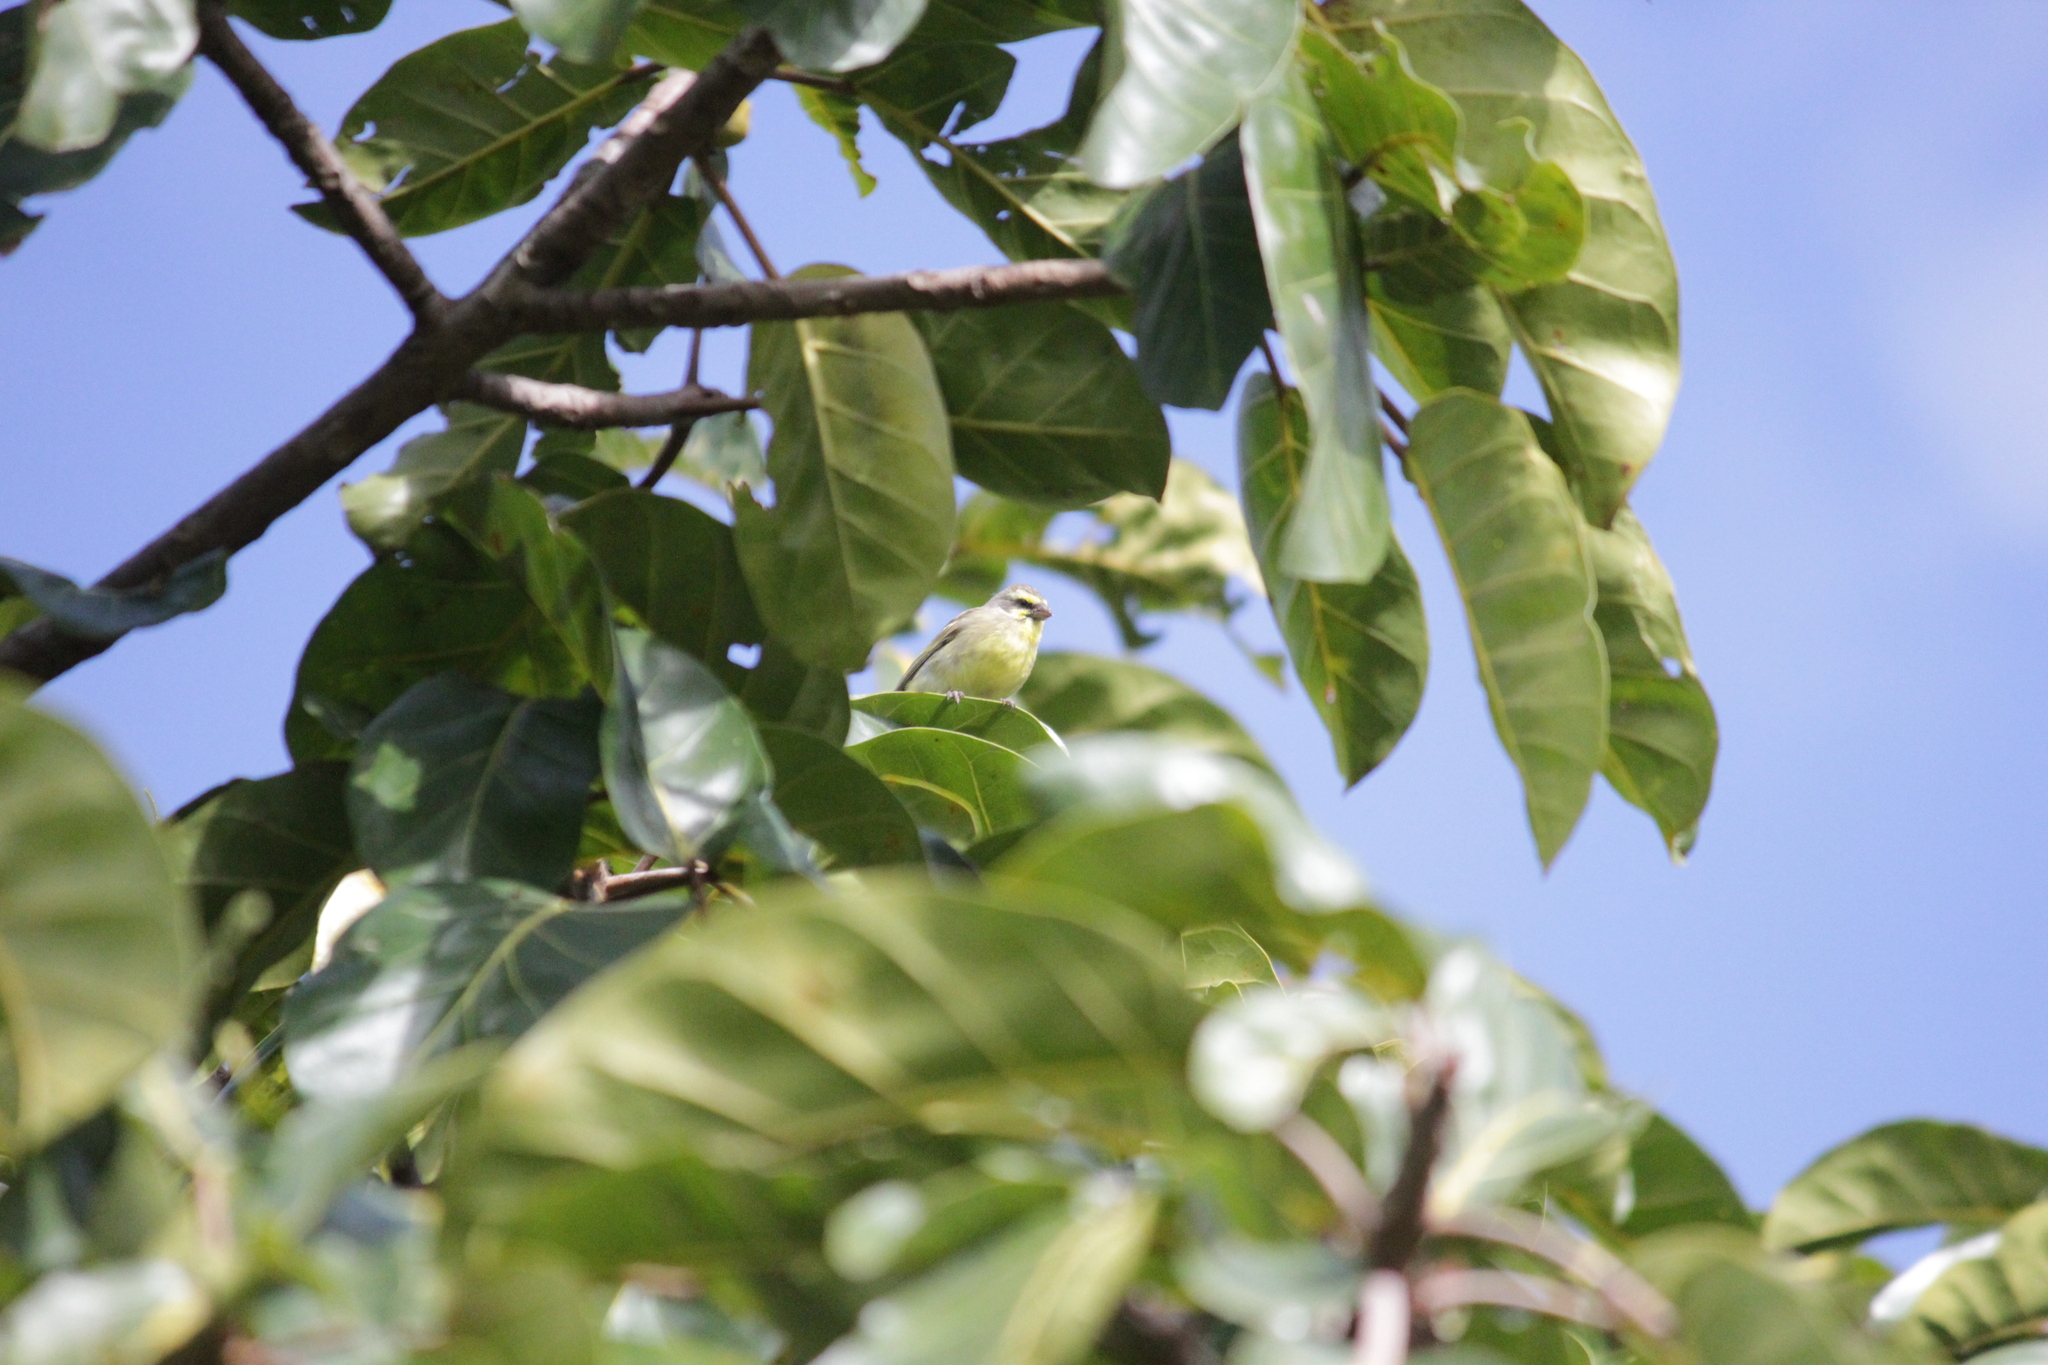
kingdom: Animalia
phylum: Chordata
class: Aves
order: Passeriformes
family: Fringillidae
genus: Crithagra
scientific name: Crithagra mozambica
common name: Yellow-fronted canary
